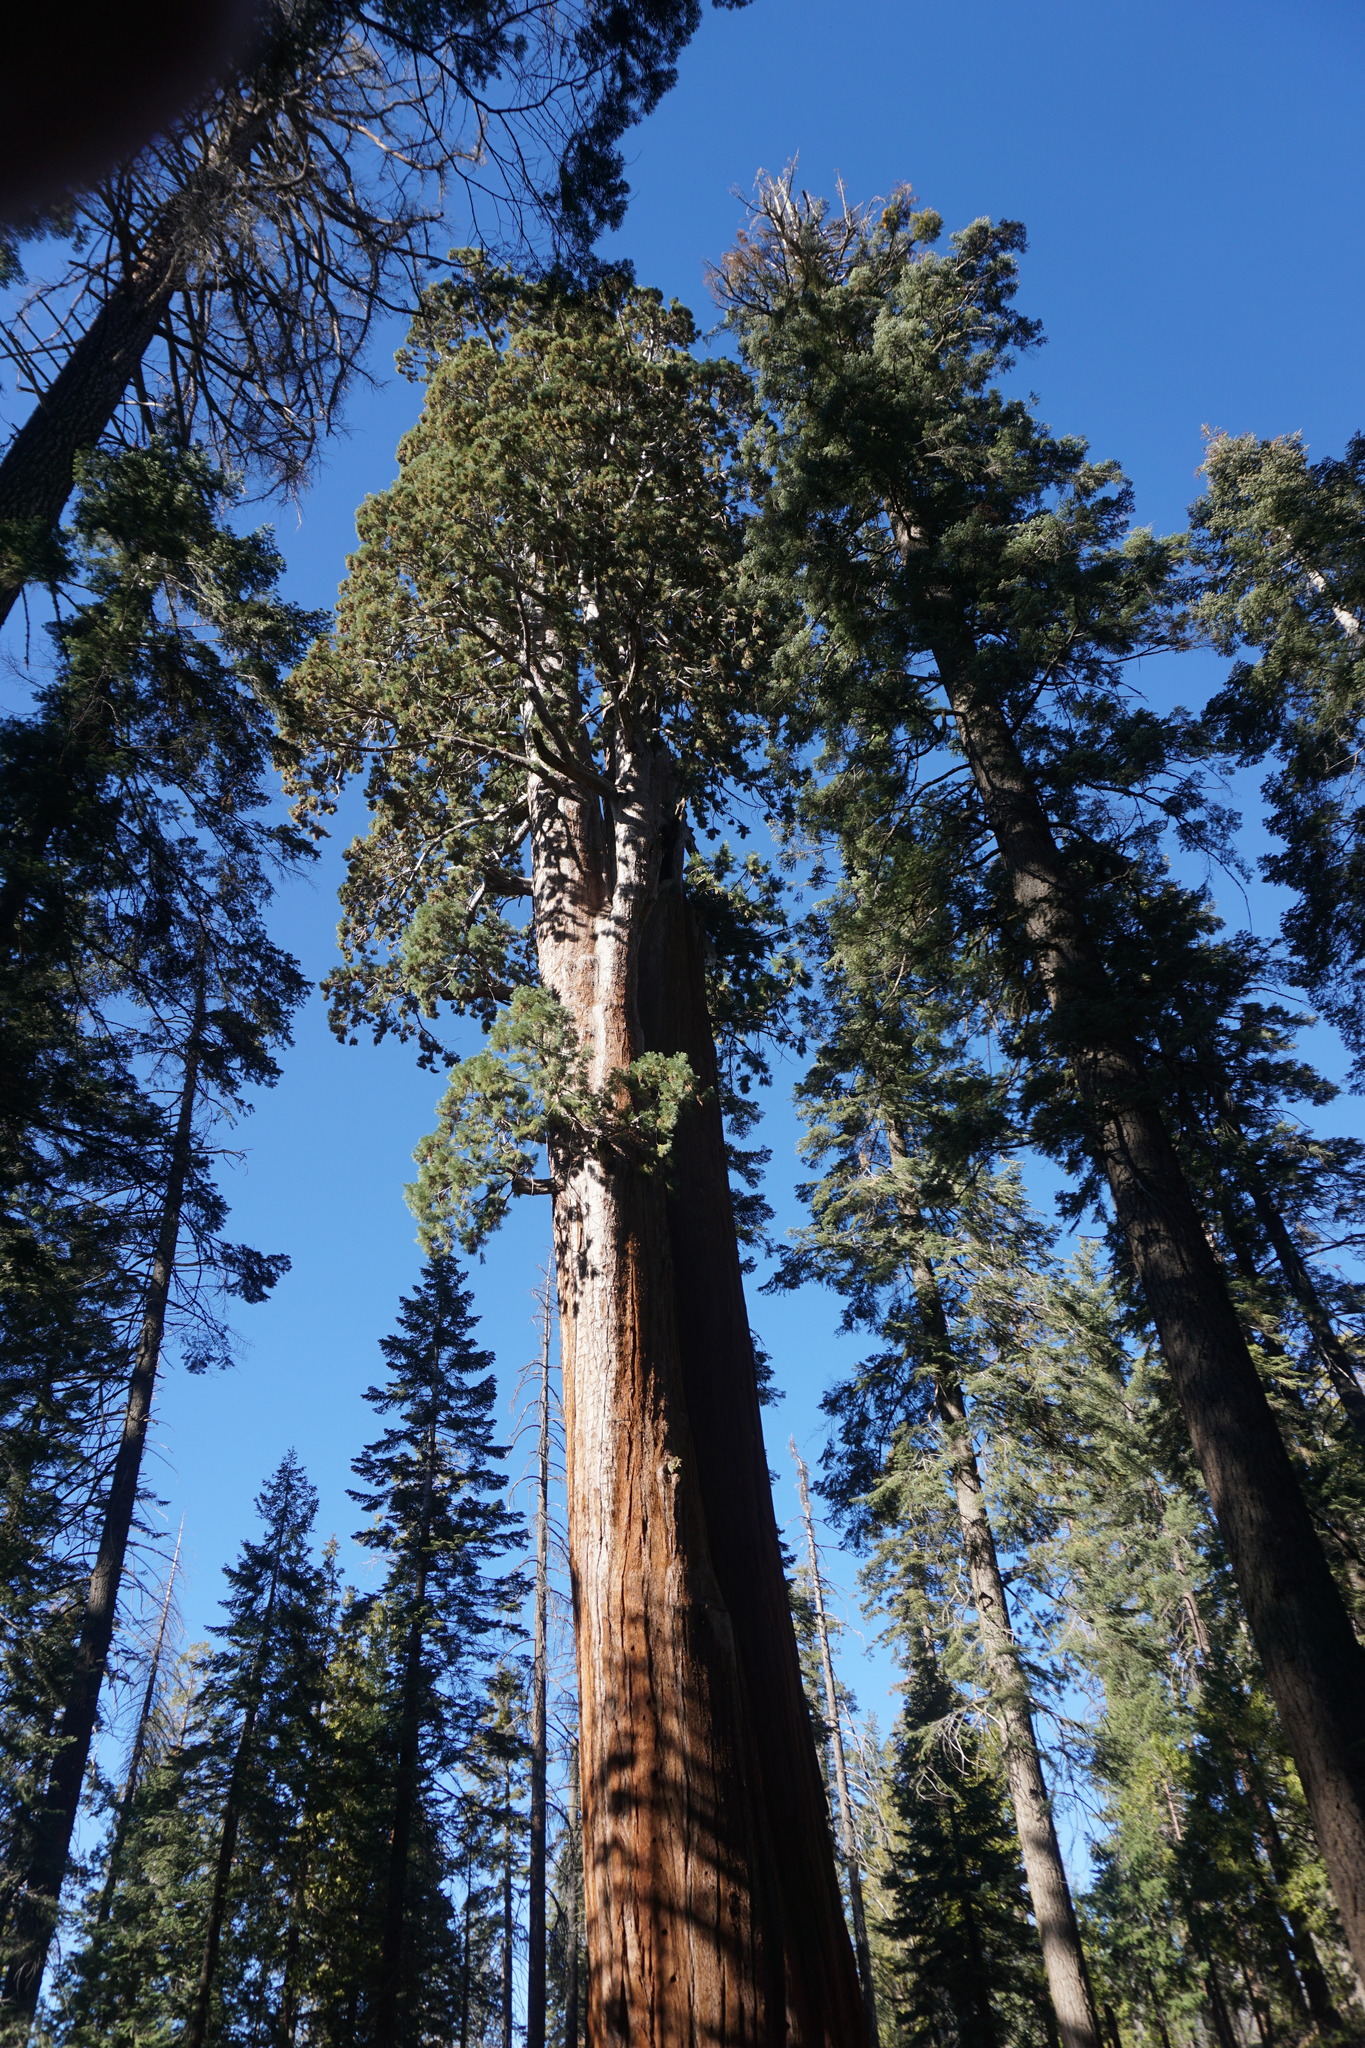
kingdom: Plantae
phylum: Tracheophyta
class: Pinopsida
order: Pinales
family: Cupressaceae
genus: Sequoiadendron
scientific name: Sequoiadendron giganteum
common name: Wellingtonia
